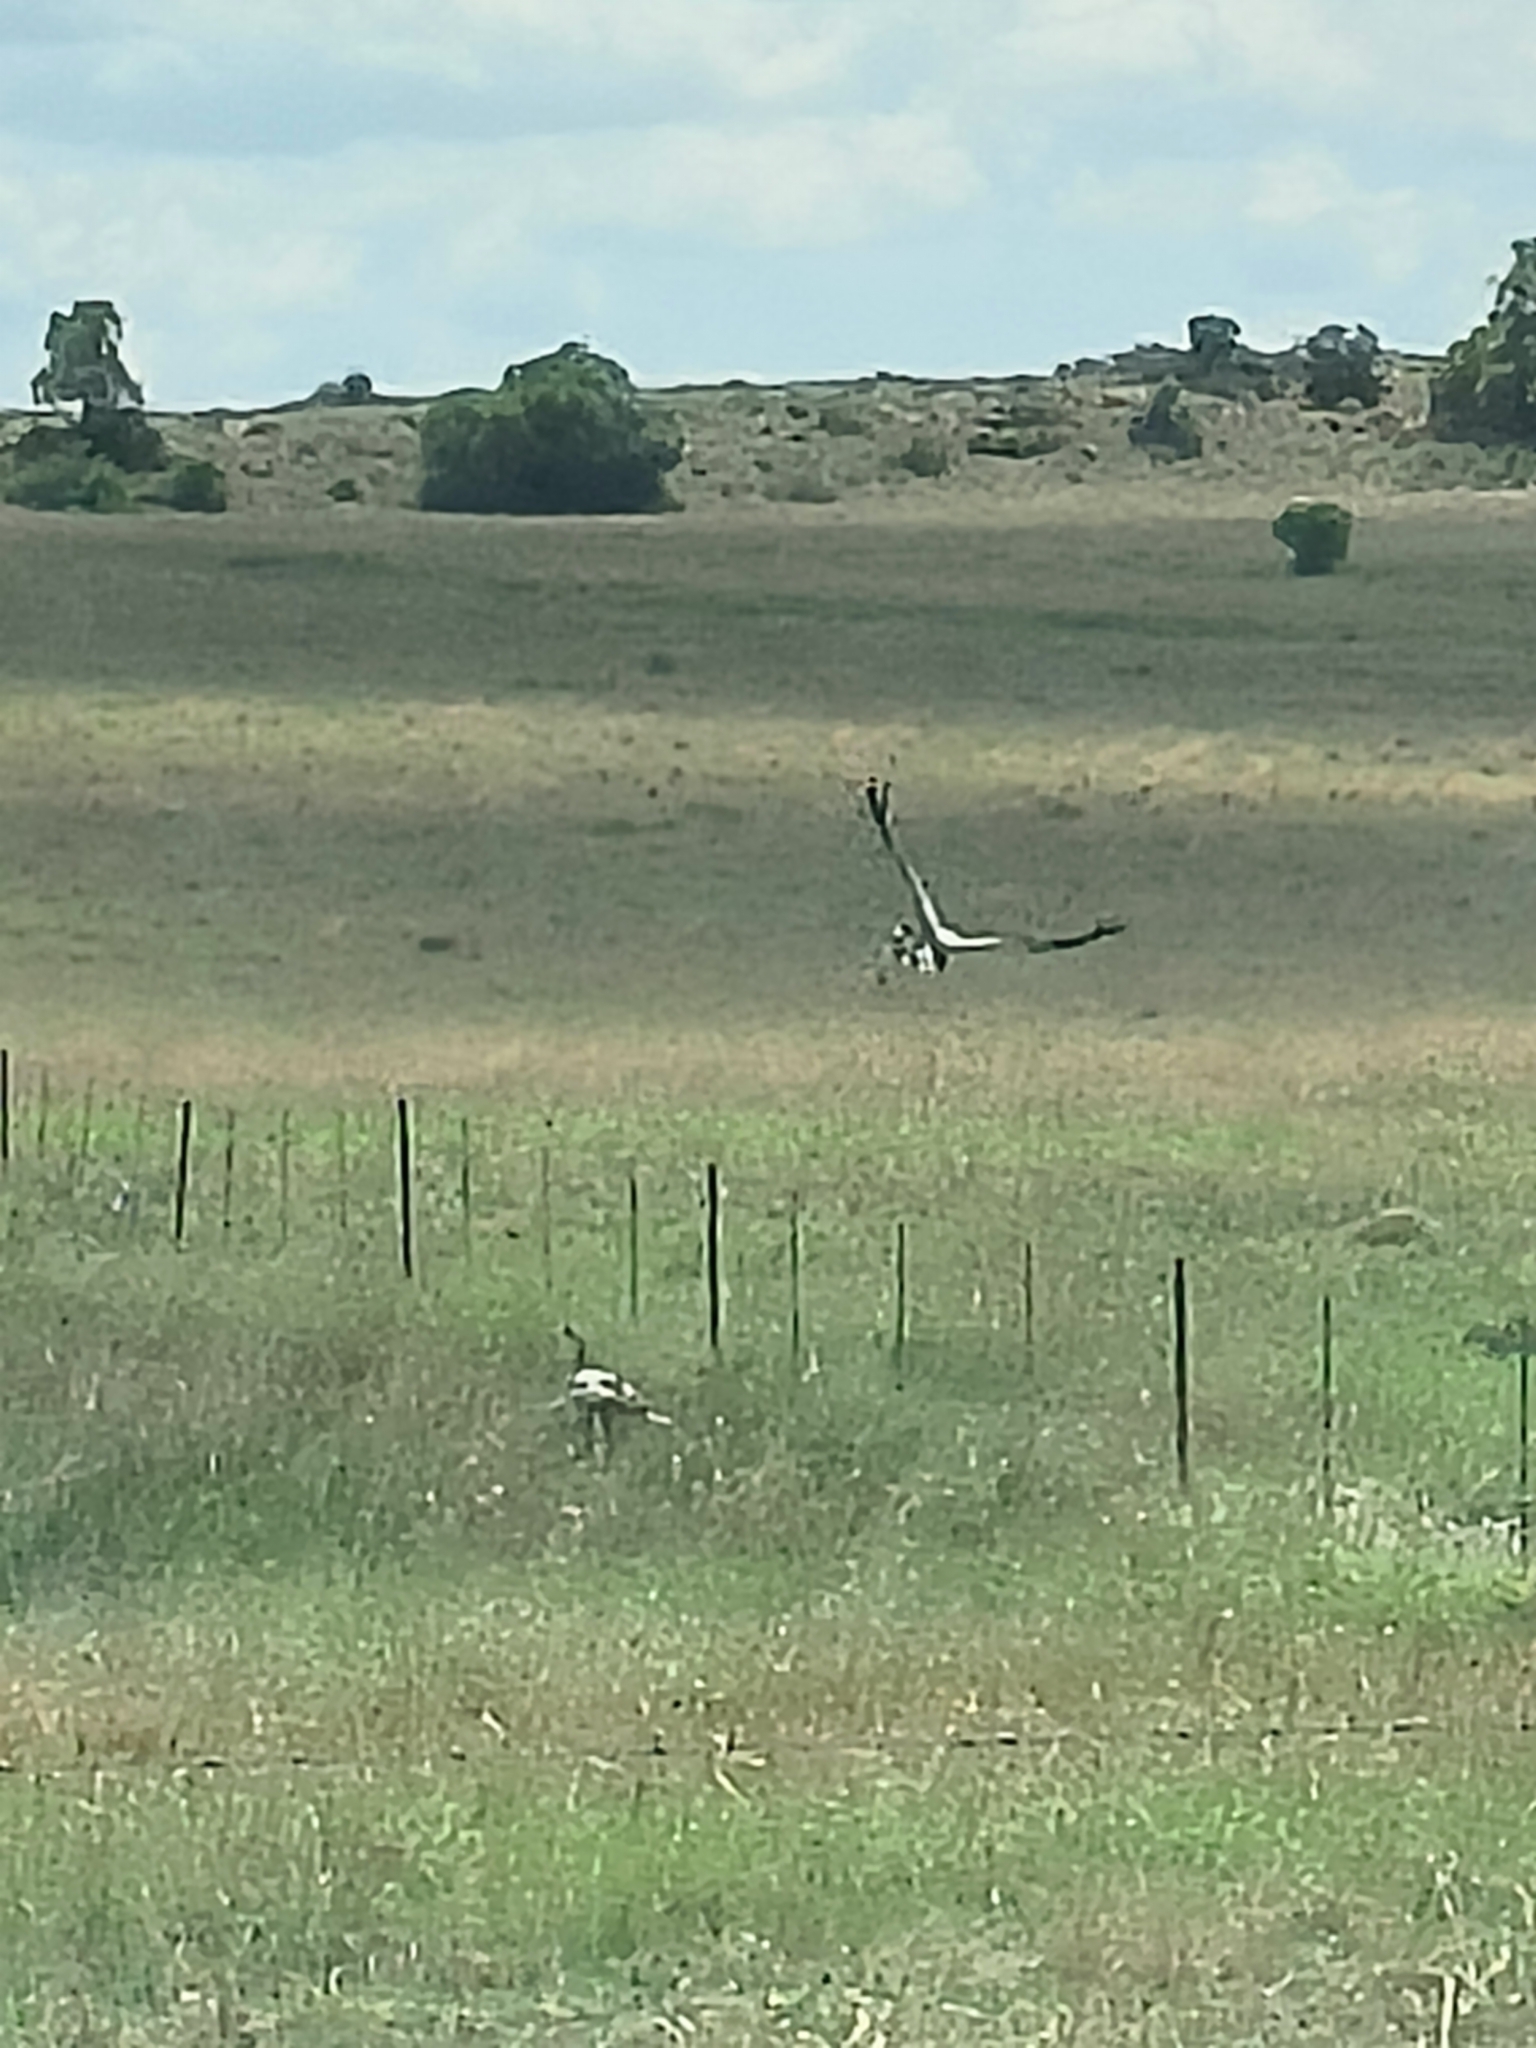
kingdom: Animalia
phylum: Chordata
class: Aves
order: Accipitriformes
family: Sagittariidae
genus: Sagittarius
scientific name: Sagittarius serpentarius
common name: Secretarybird
